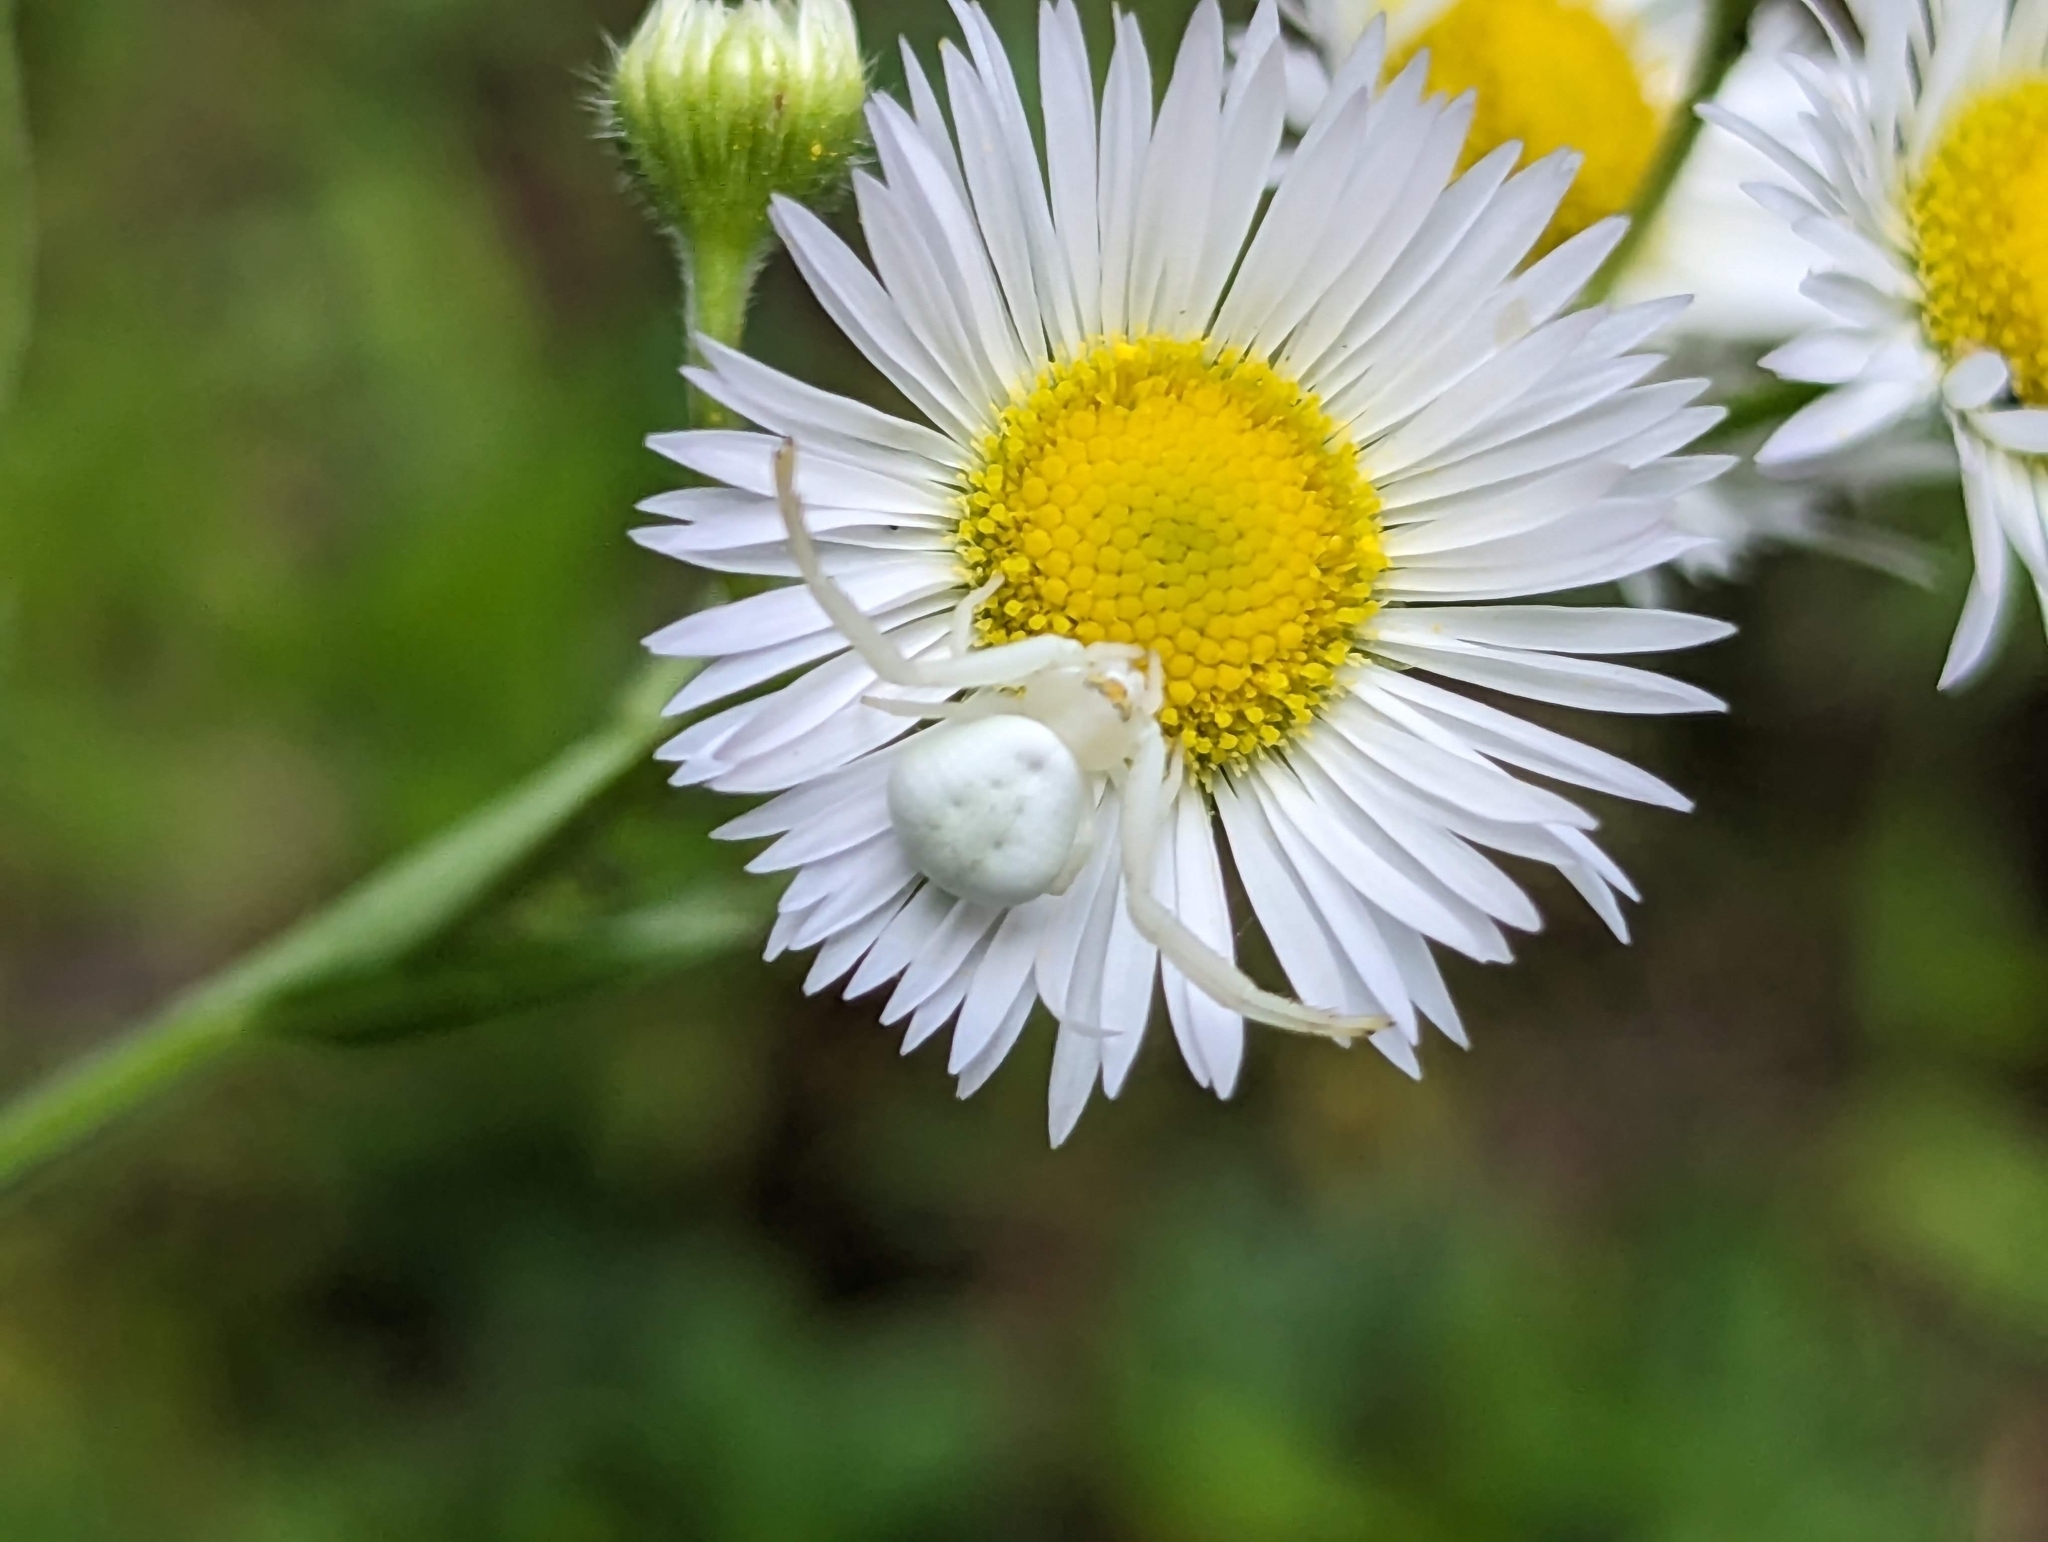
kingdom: Plantae
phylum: Tracheophyta
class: Magnoliopsida
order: Asterales
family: Asteraceae
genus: Erigeron
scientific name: Erigeron strigosus
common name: Common eastern fleabane
